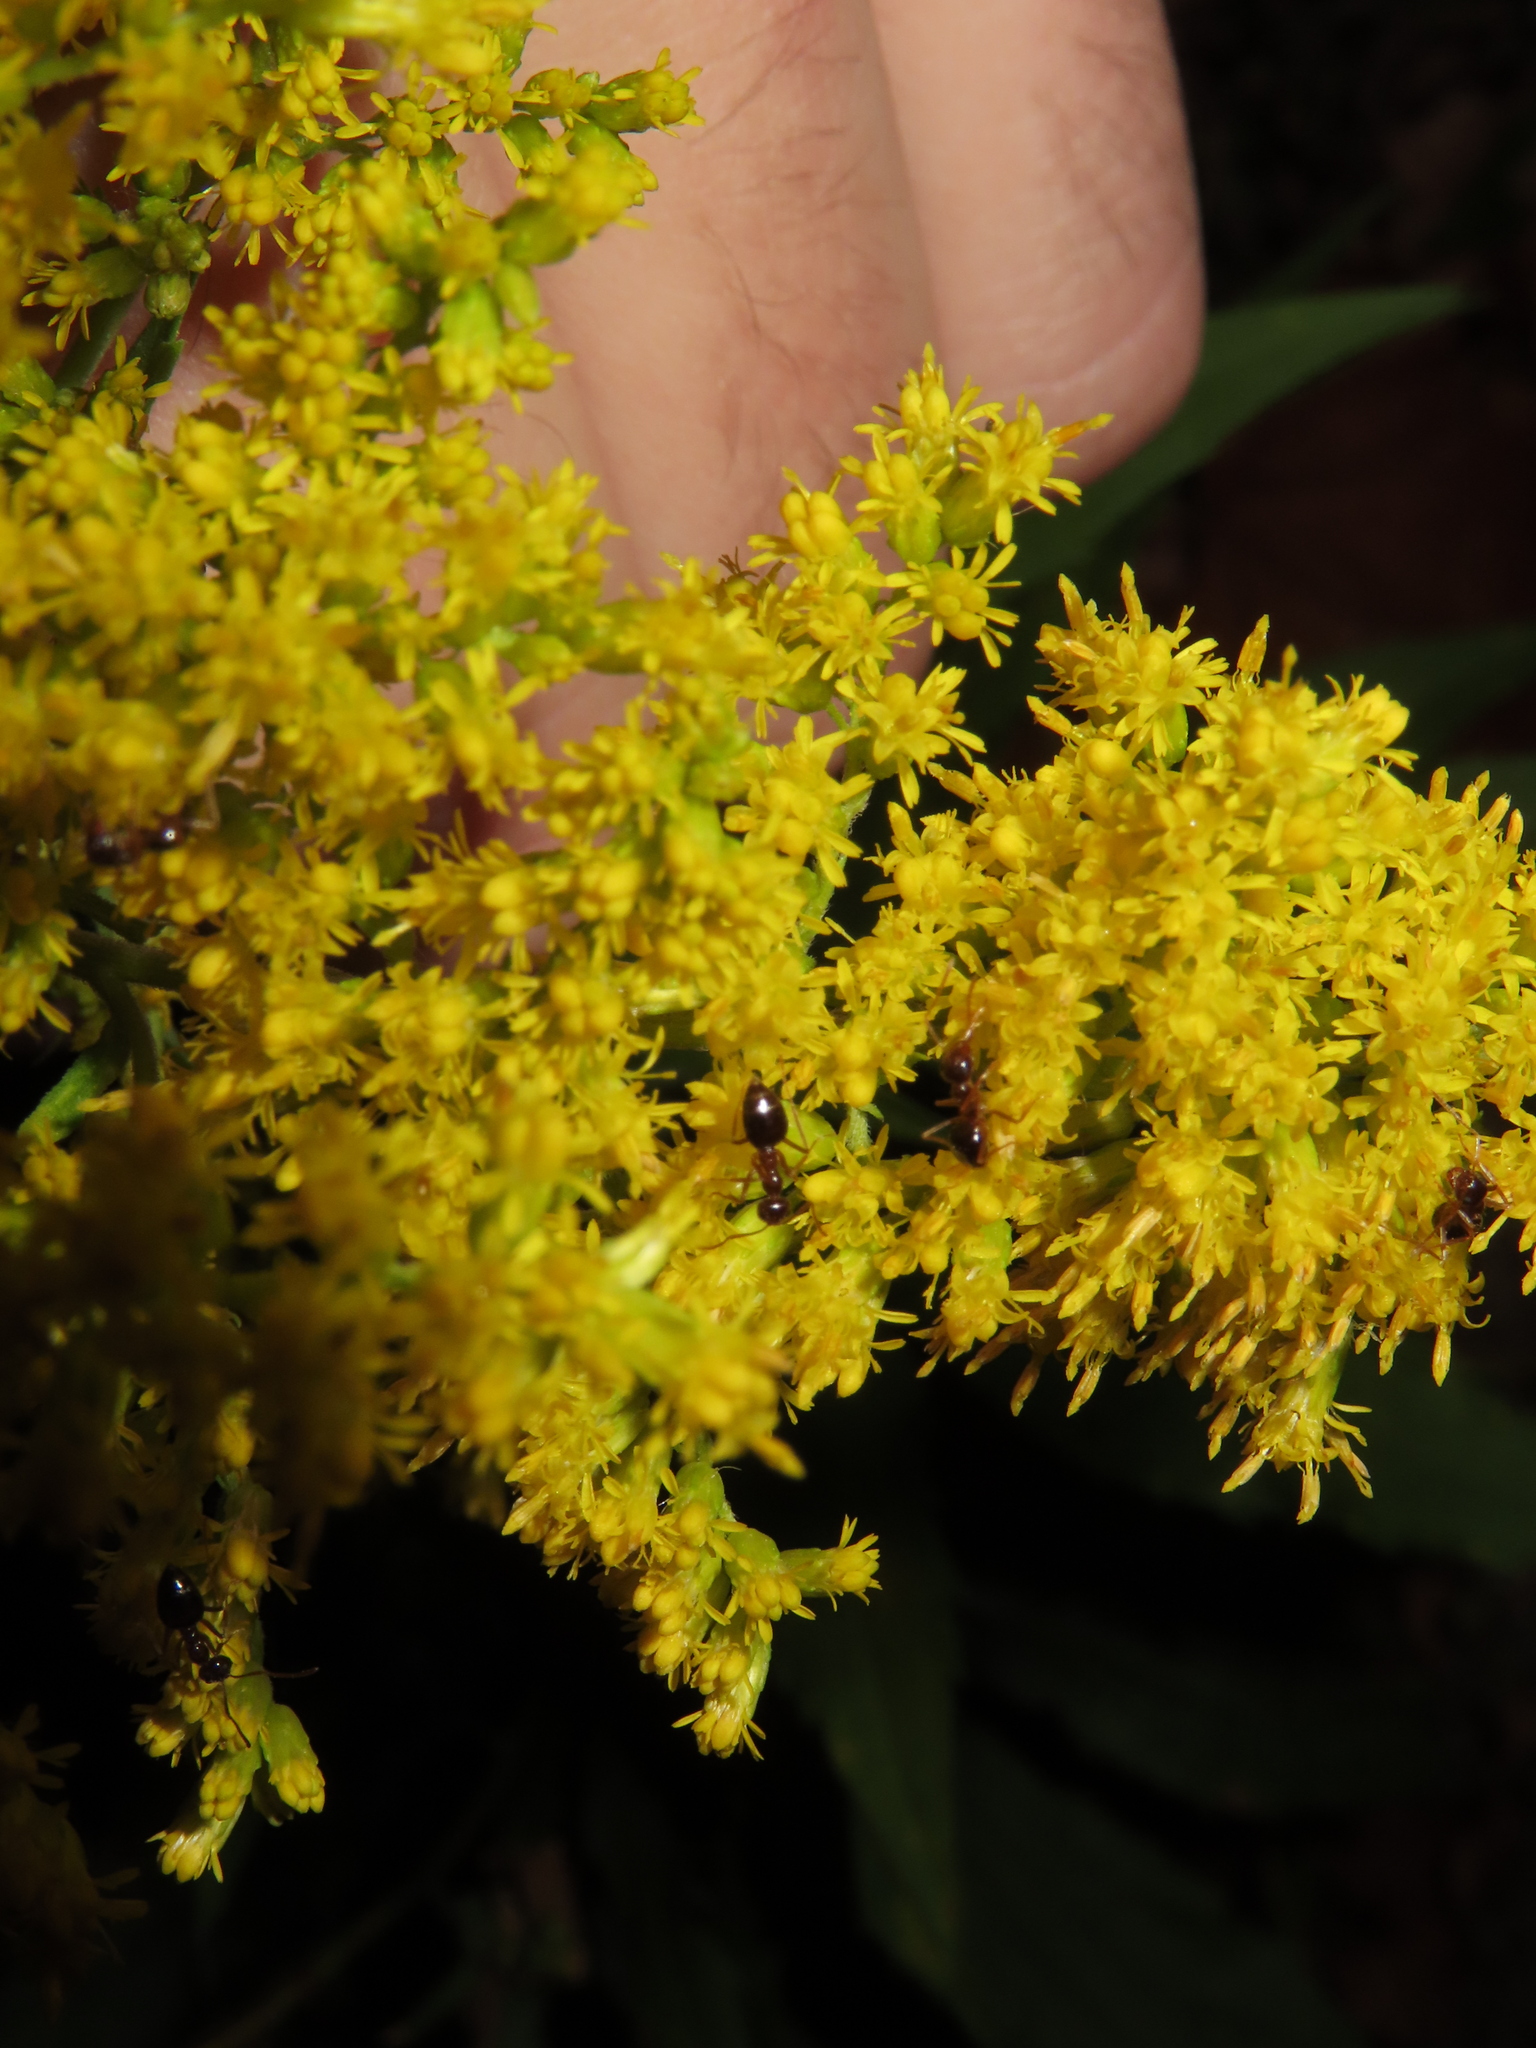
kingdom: Animalia
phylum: Arthropoda
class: Insecta
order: Hymenoptera
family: Formicidae
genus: Prenolepis
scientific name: Prenolepis imparis
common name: Small honey ant
